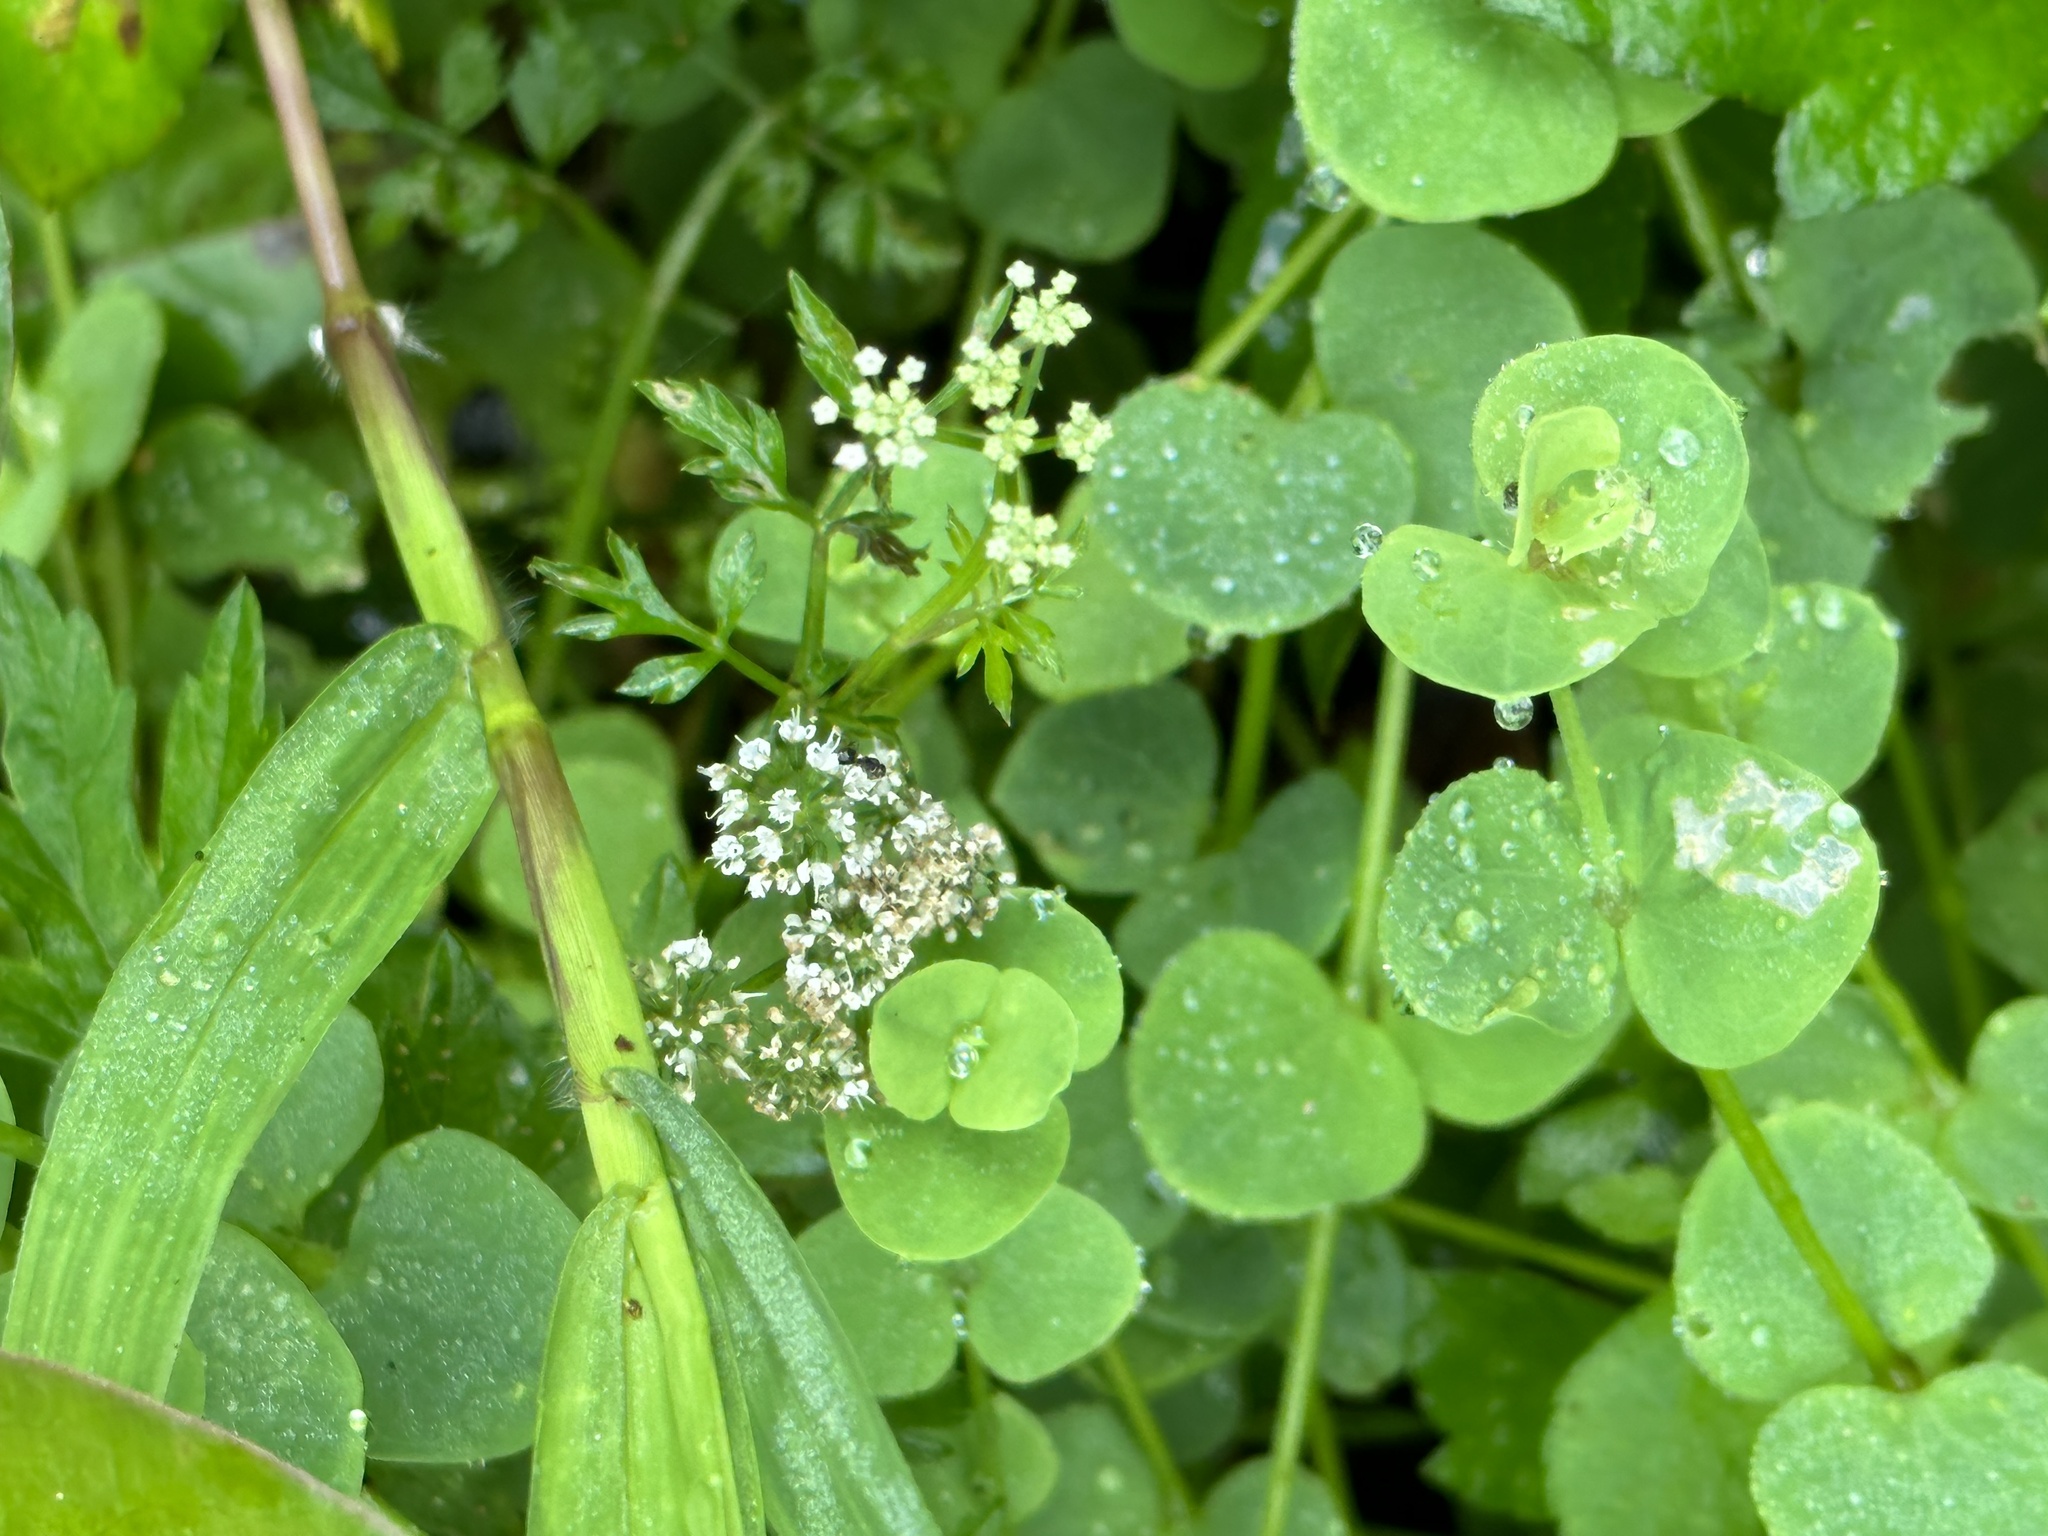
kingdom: Plantae
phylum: Tracheophyta
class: Magnoliopsida
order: Apiales
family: Apiaceae
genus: Oenanthe
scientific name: Oenanthe javanica
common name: Java water-dropwort
